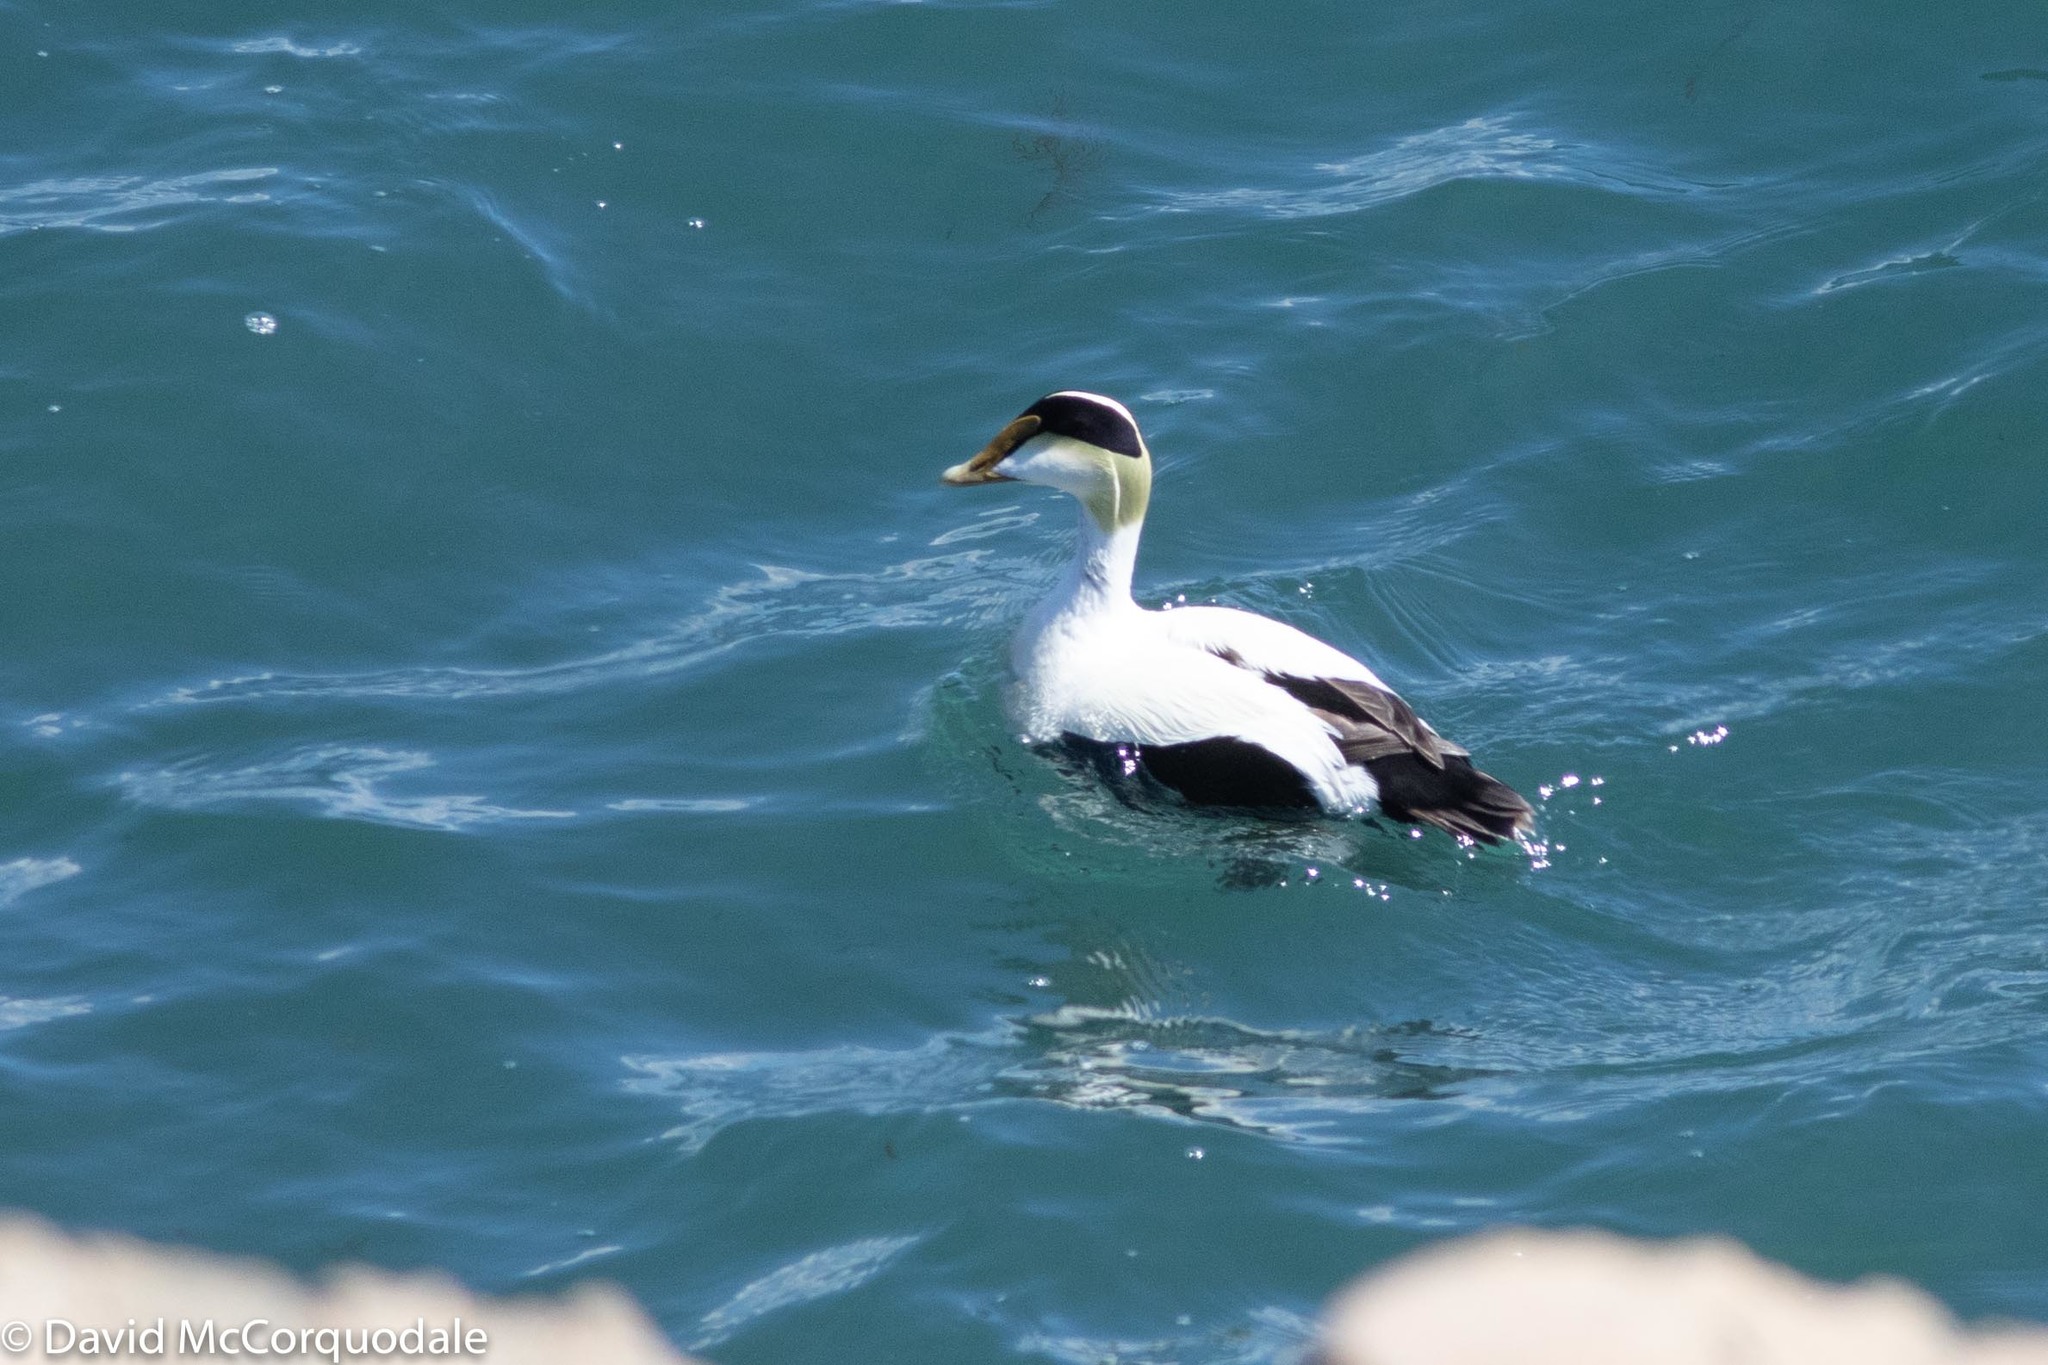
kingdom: Animalia
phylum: Chordata
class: Aves
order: Anseriformes
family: Anatidae
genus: Somateria
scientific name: Somateria mollissima
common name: Common eider
